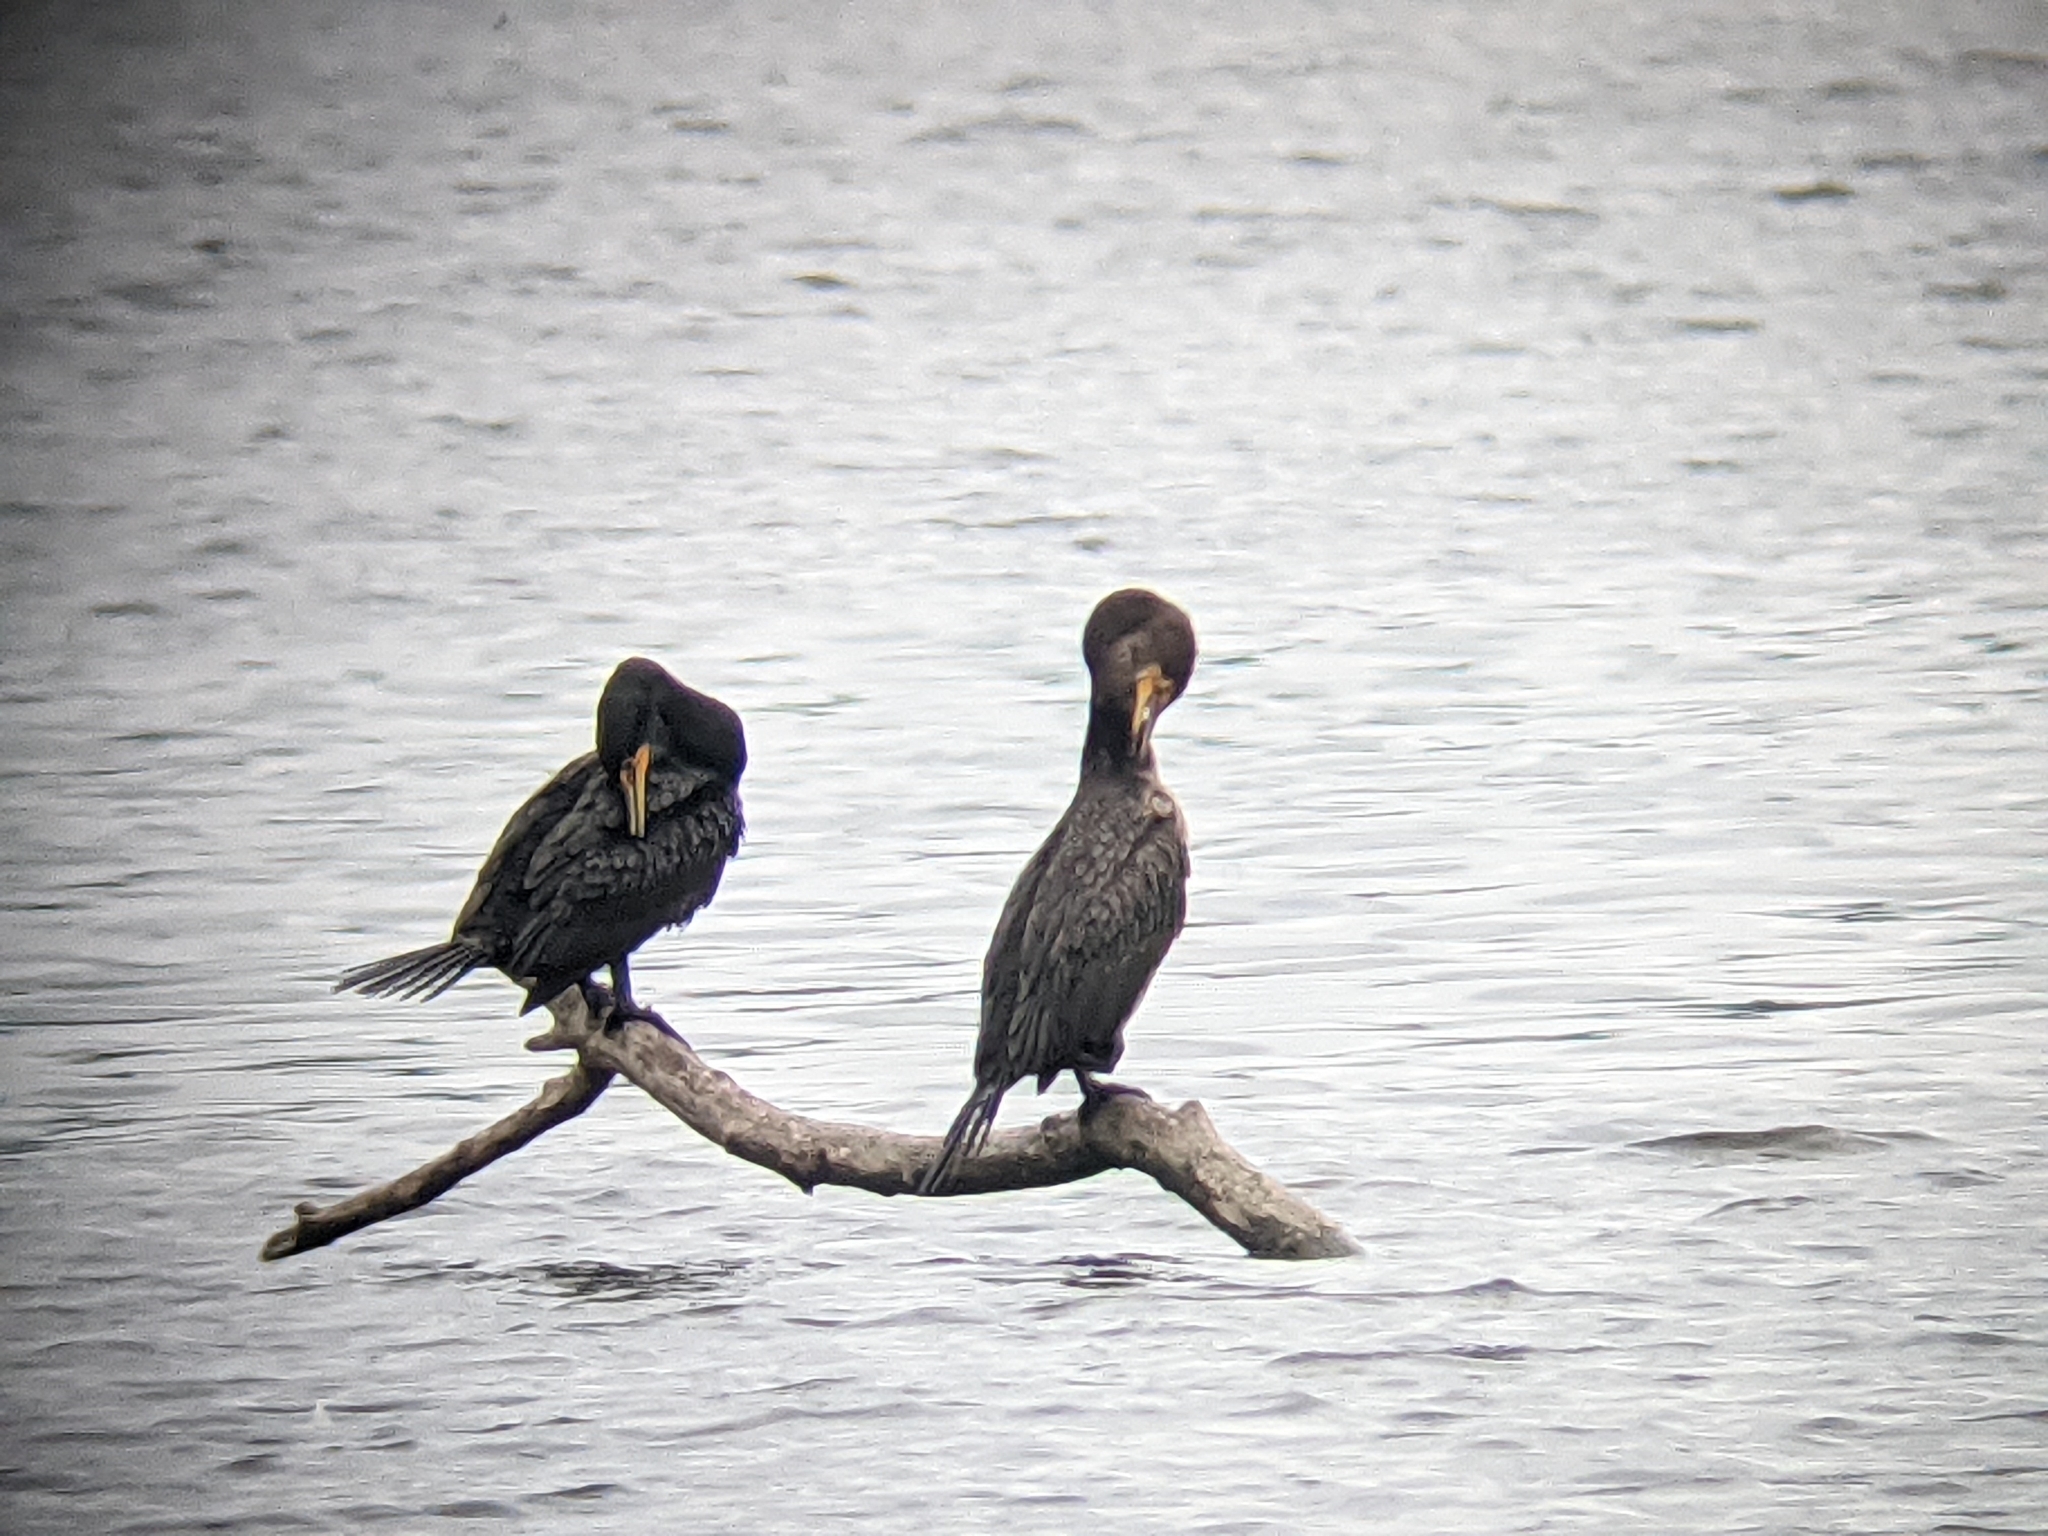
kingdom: Animalia
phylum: Chordata
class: Aves
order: Suliformes
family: Phalacrocoracidae
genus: Phalacrocorax
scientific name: Phalacrocorax auritus
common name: Double-crested cormorant
